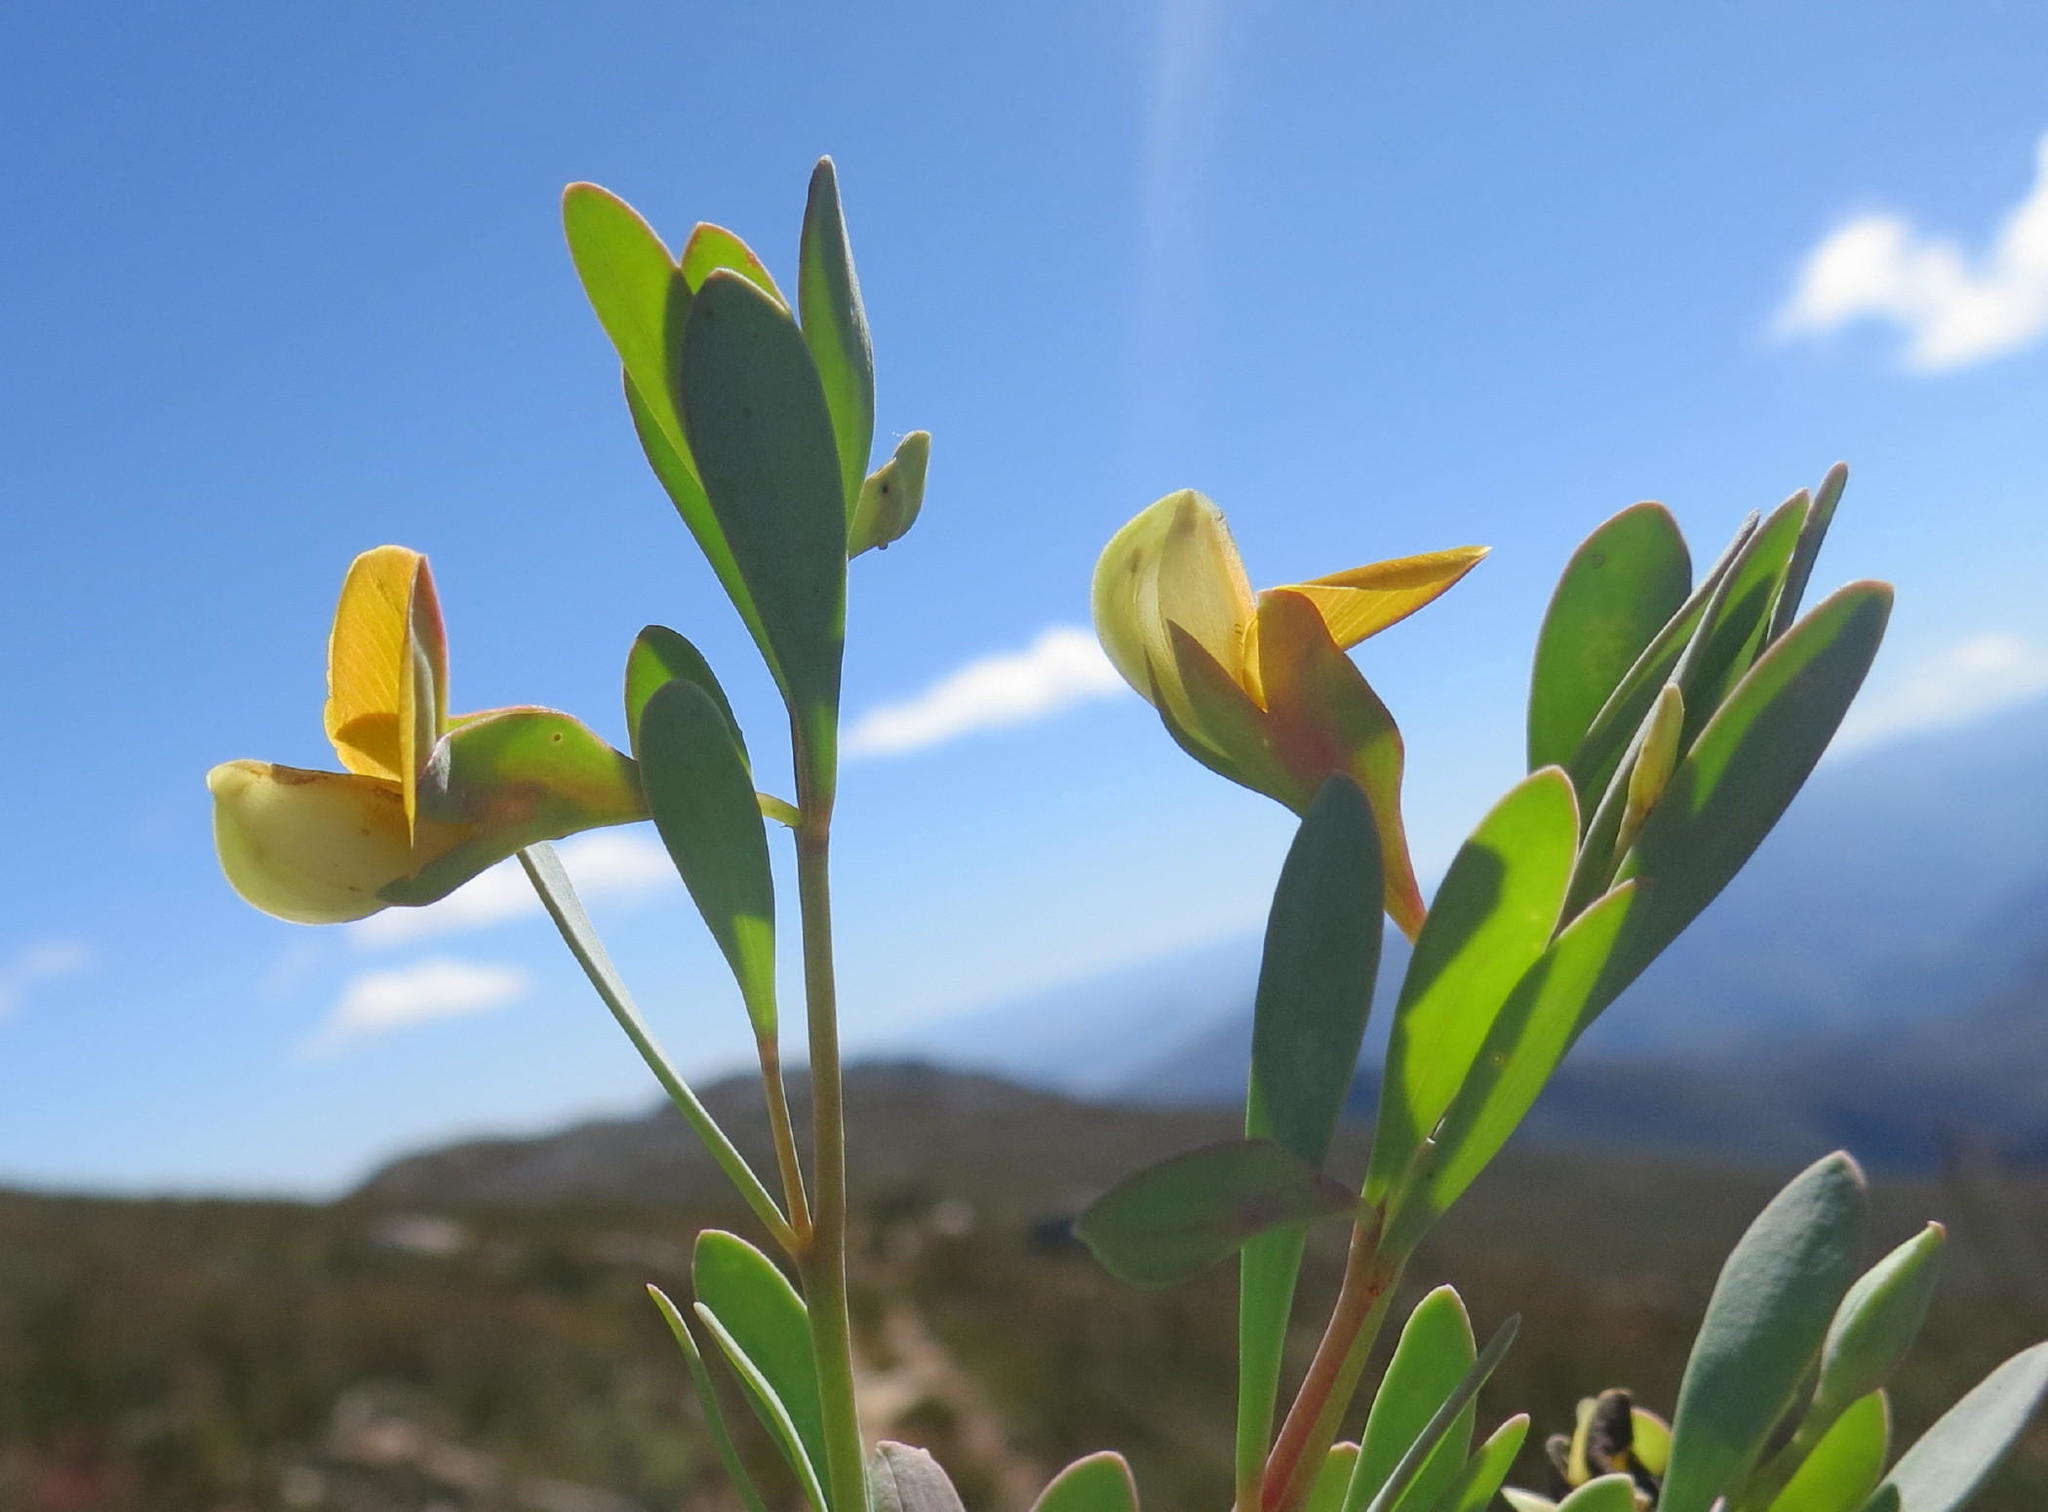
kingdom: Plantae
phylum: Tracheophyta
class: Magnoliopsida
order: Fabales
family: Fabaceae
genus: Rafnia
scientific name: Rafnia rostrata
